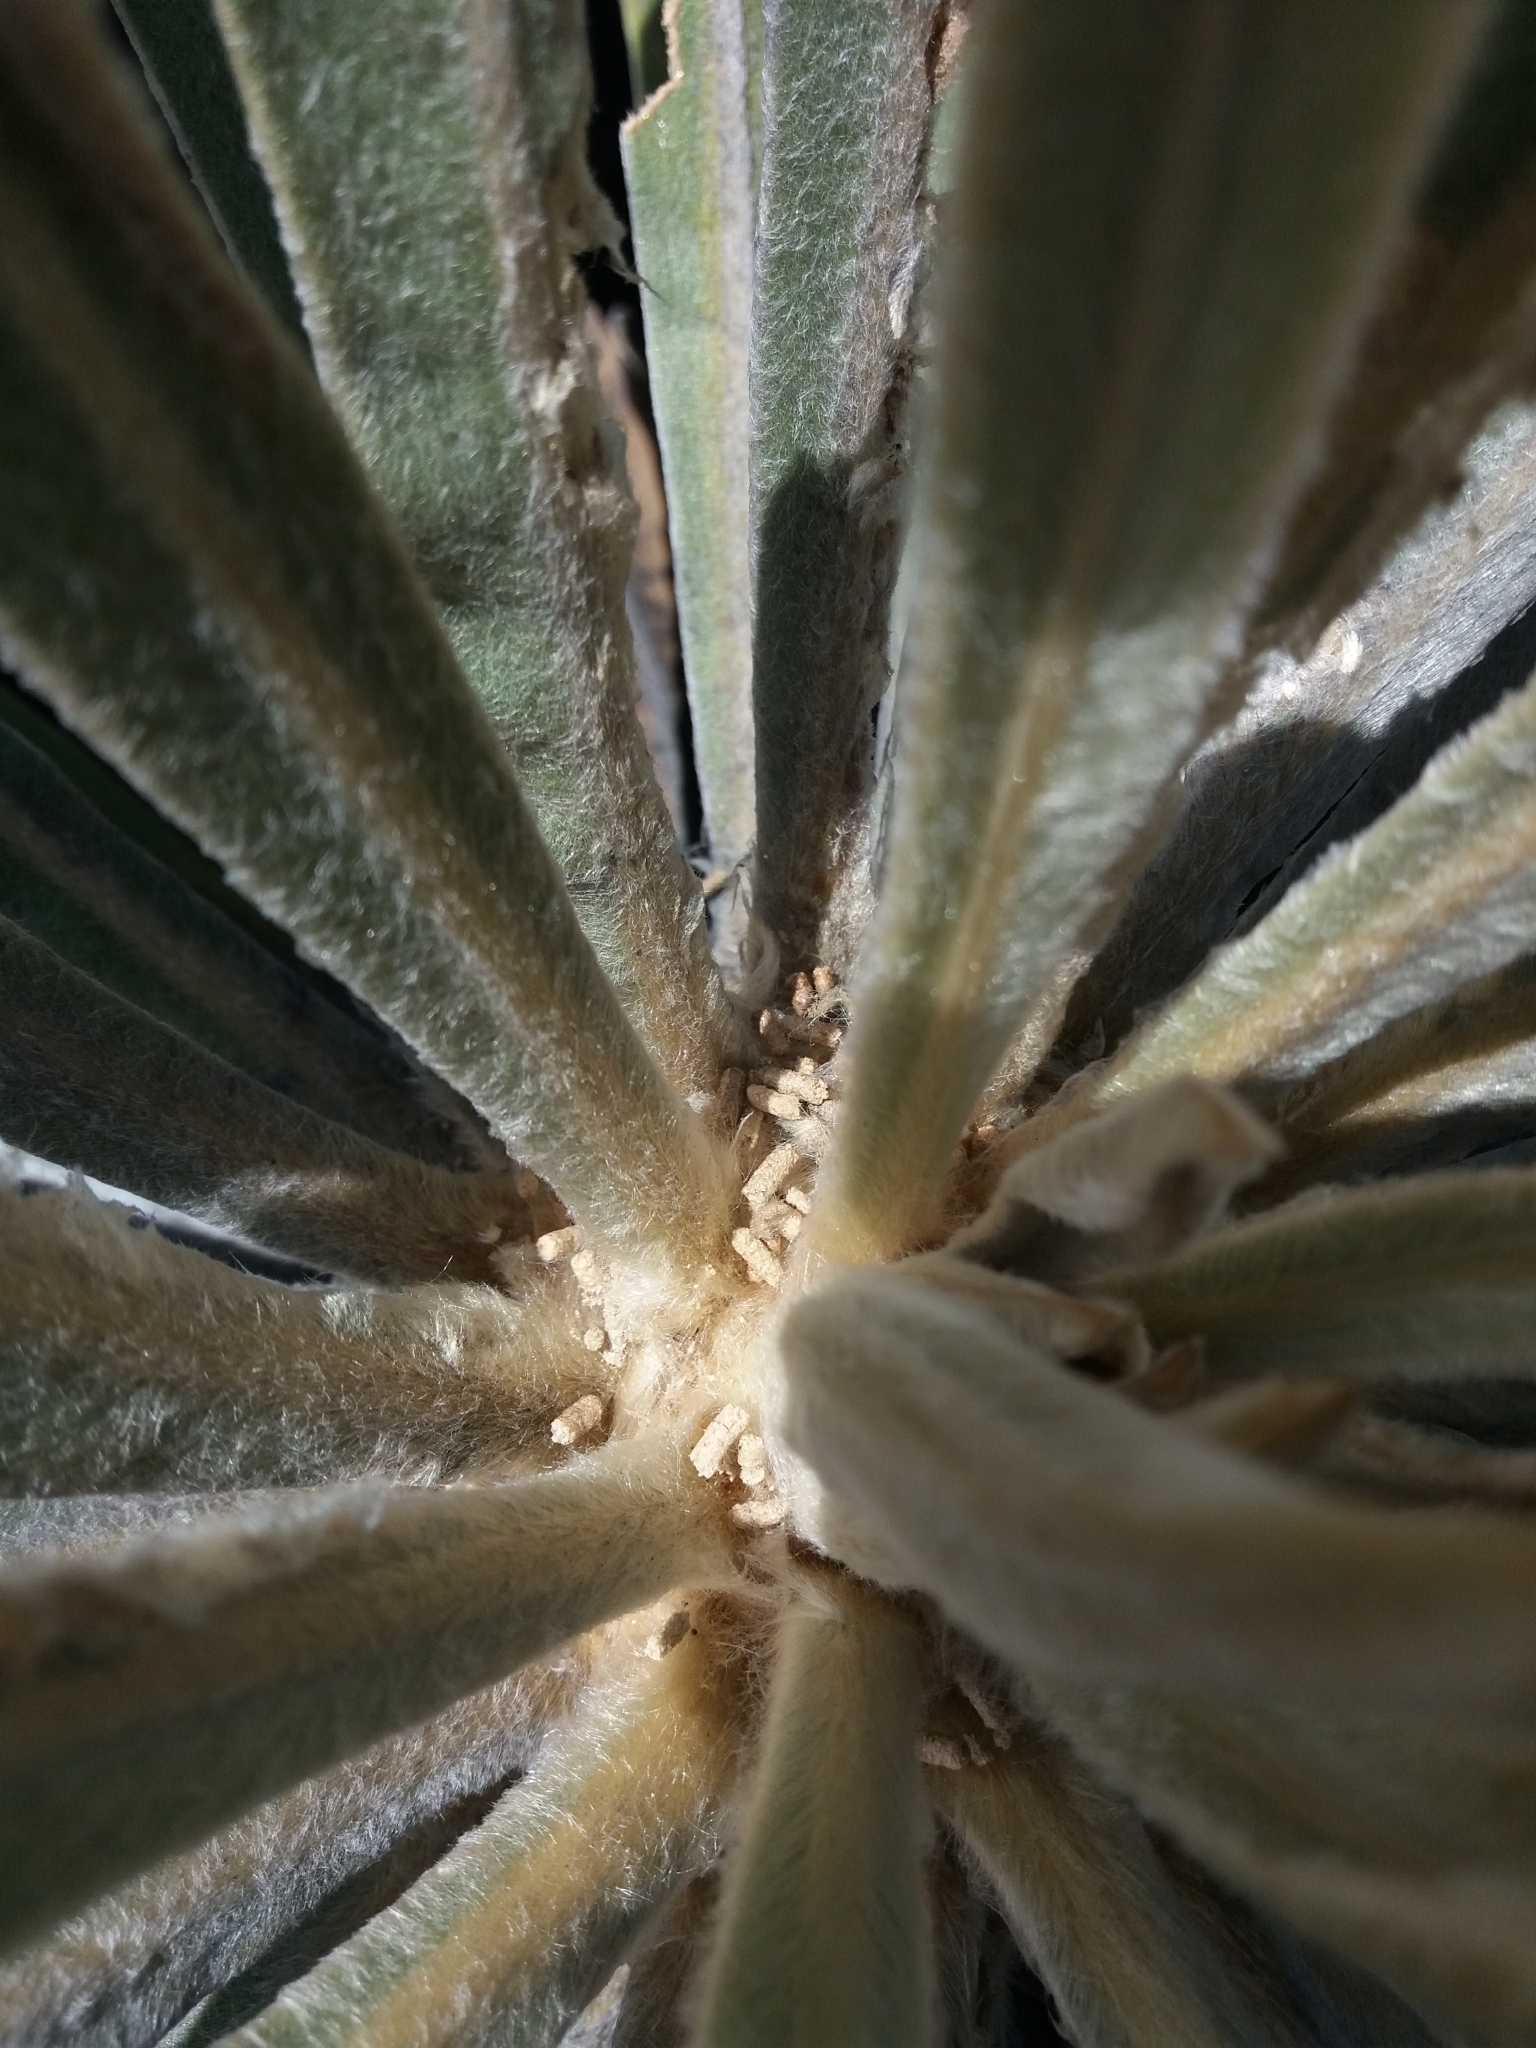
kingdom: Plantae
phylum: Tracheophyta
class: Magnoliopsida
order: Asterales
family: Asteraceae
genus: Espeletia
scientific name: Espeletia corymbosa
